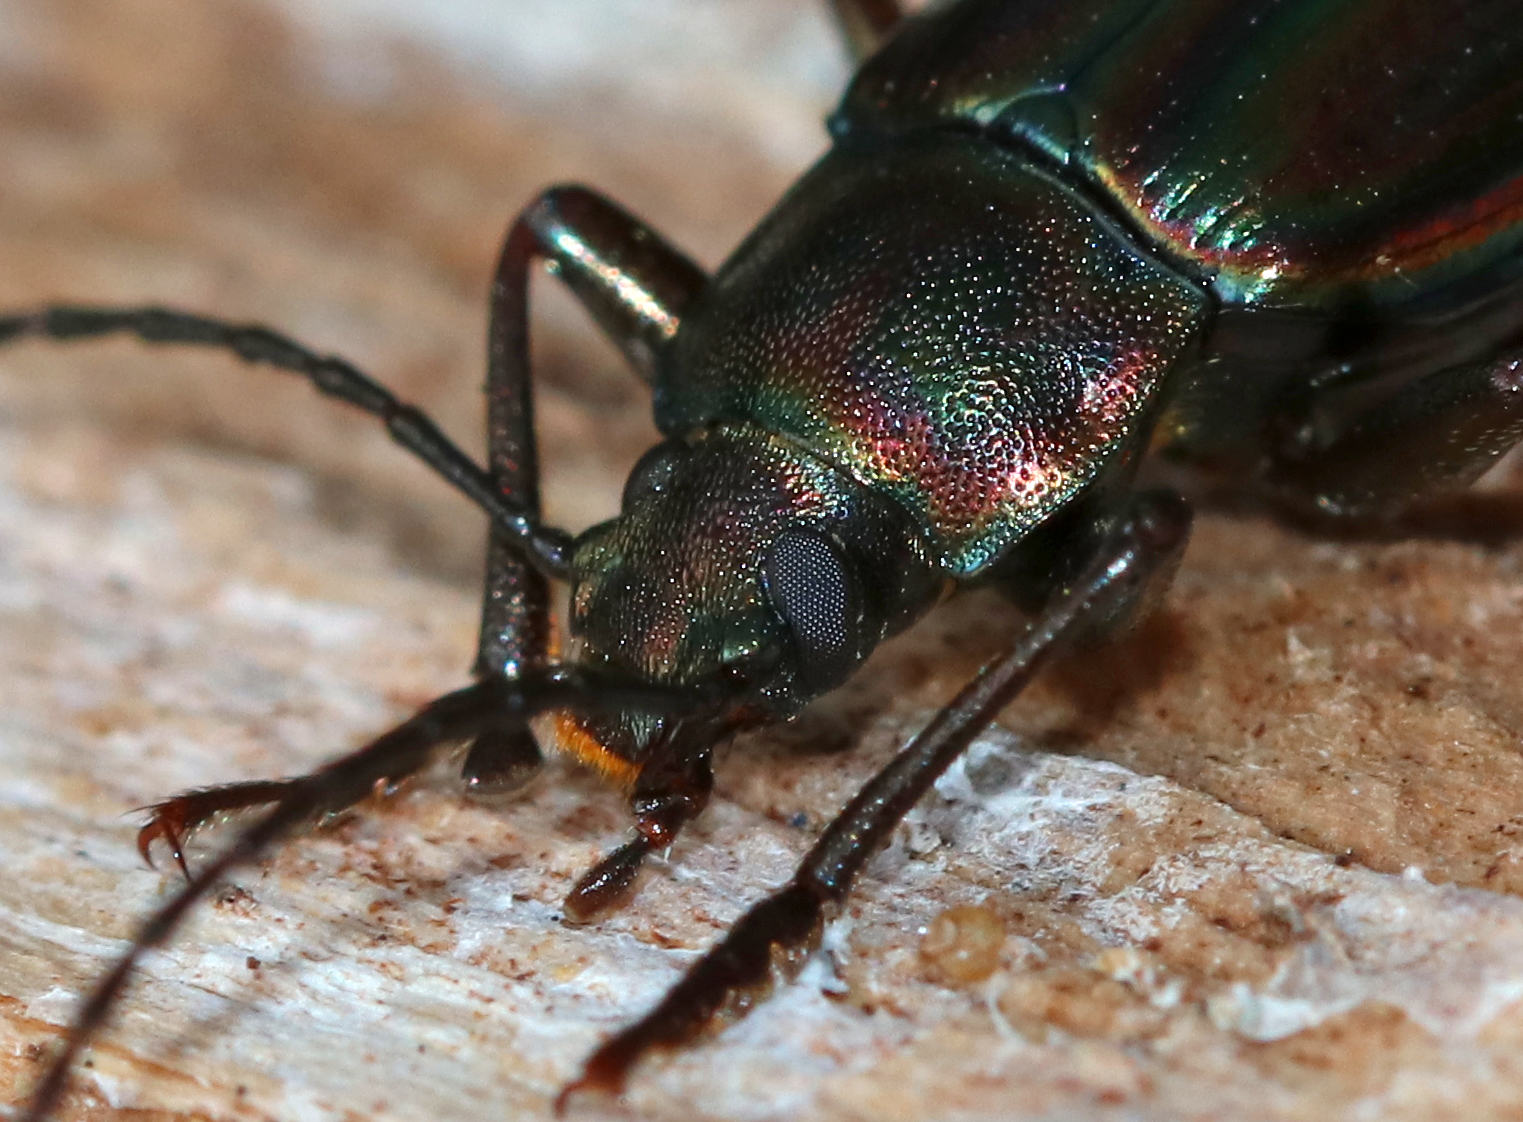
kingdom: Animalia
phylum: Arthropoda
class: Insecta
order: Coleoptera
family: Tenebrionidae
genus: Tarpela
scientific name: Tarpela micans
